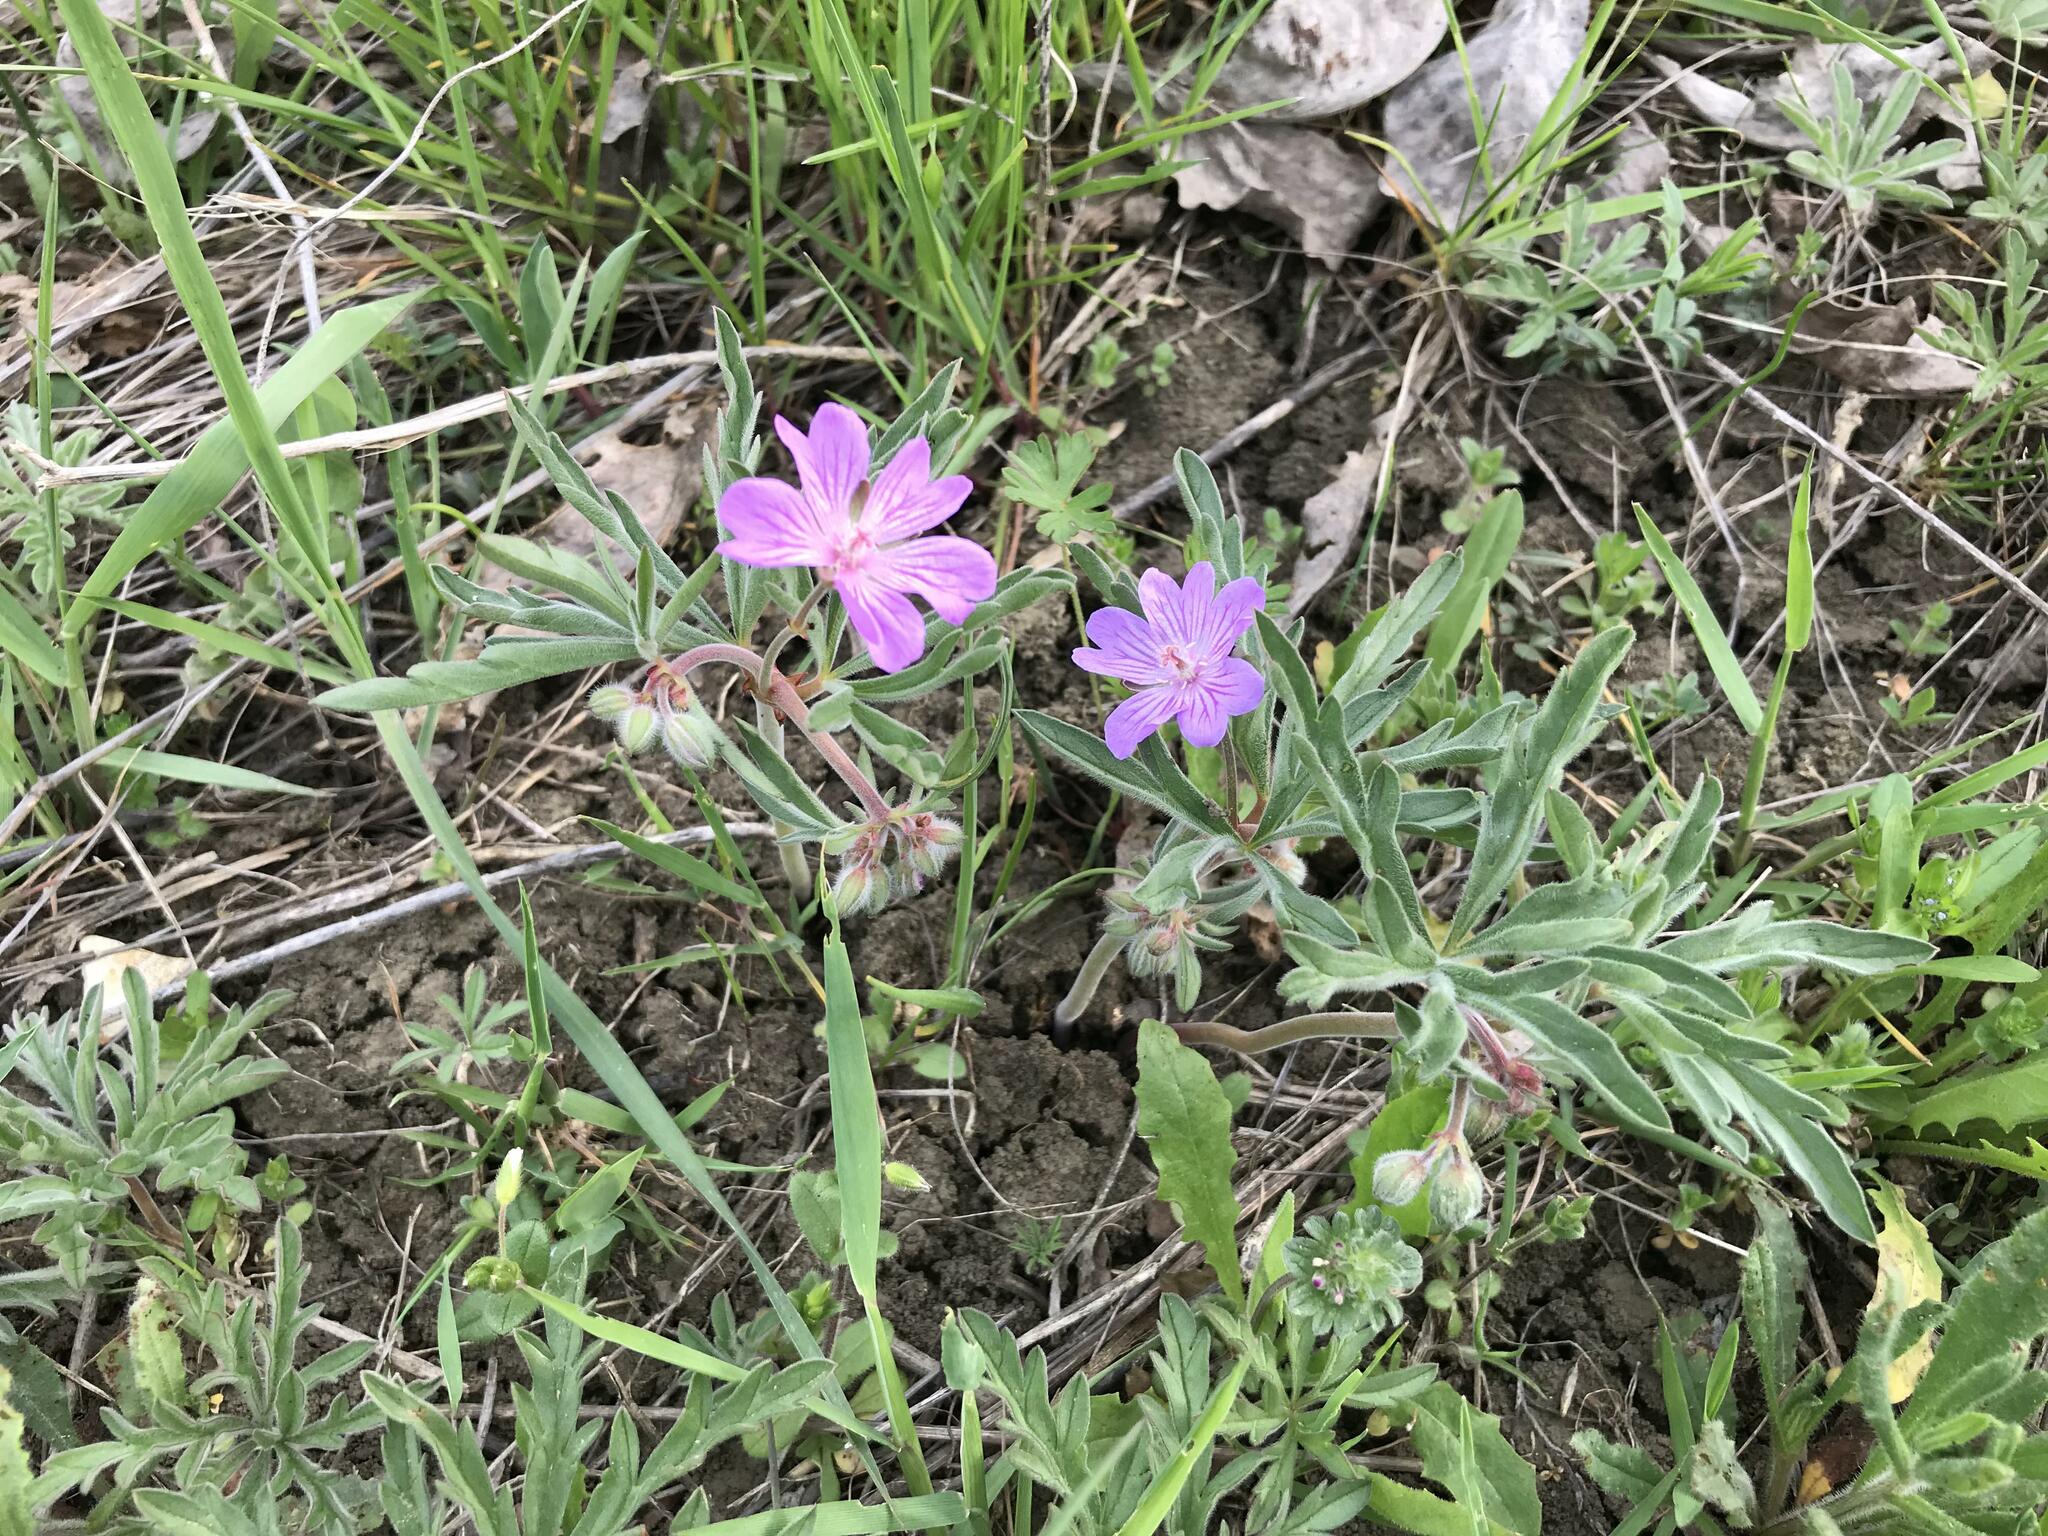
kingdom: Plantae
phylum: Tracheophyta
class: Magnoliopsida
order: Geraniales
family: Geraniaceae
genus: Geranium
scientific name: Geranium tuberosum
